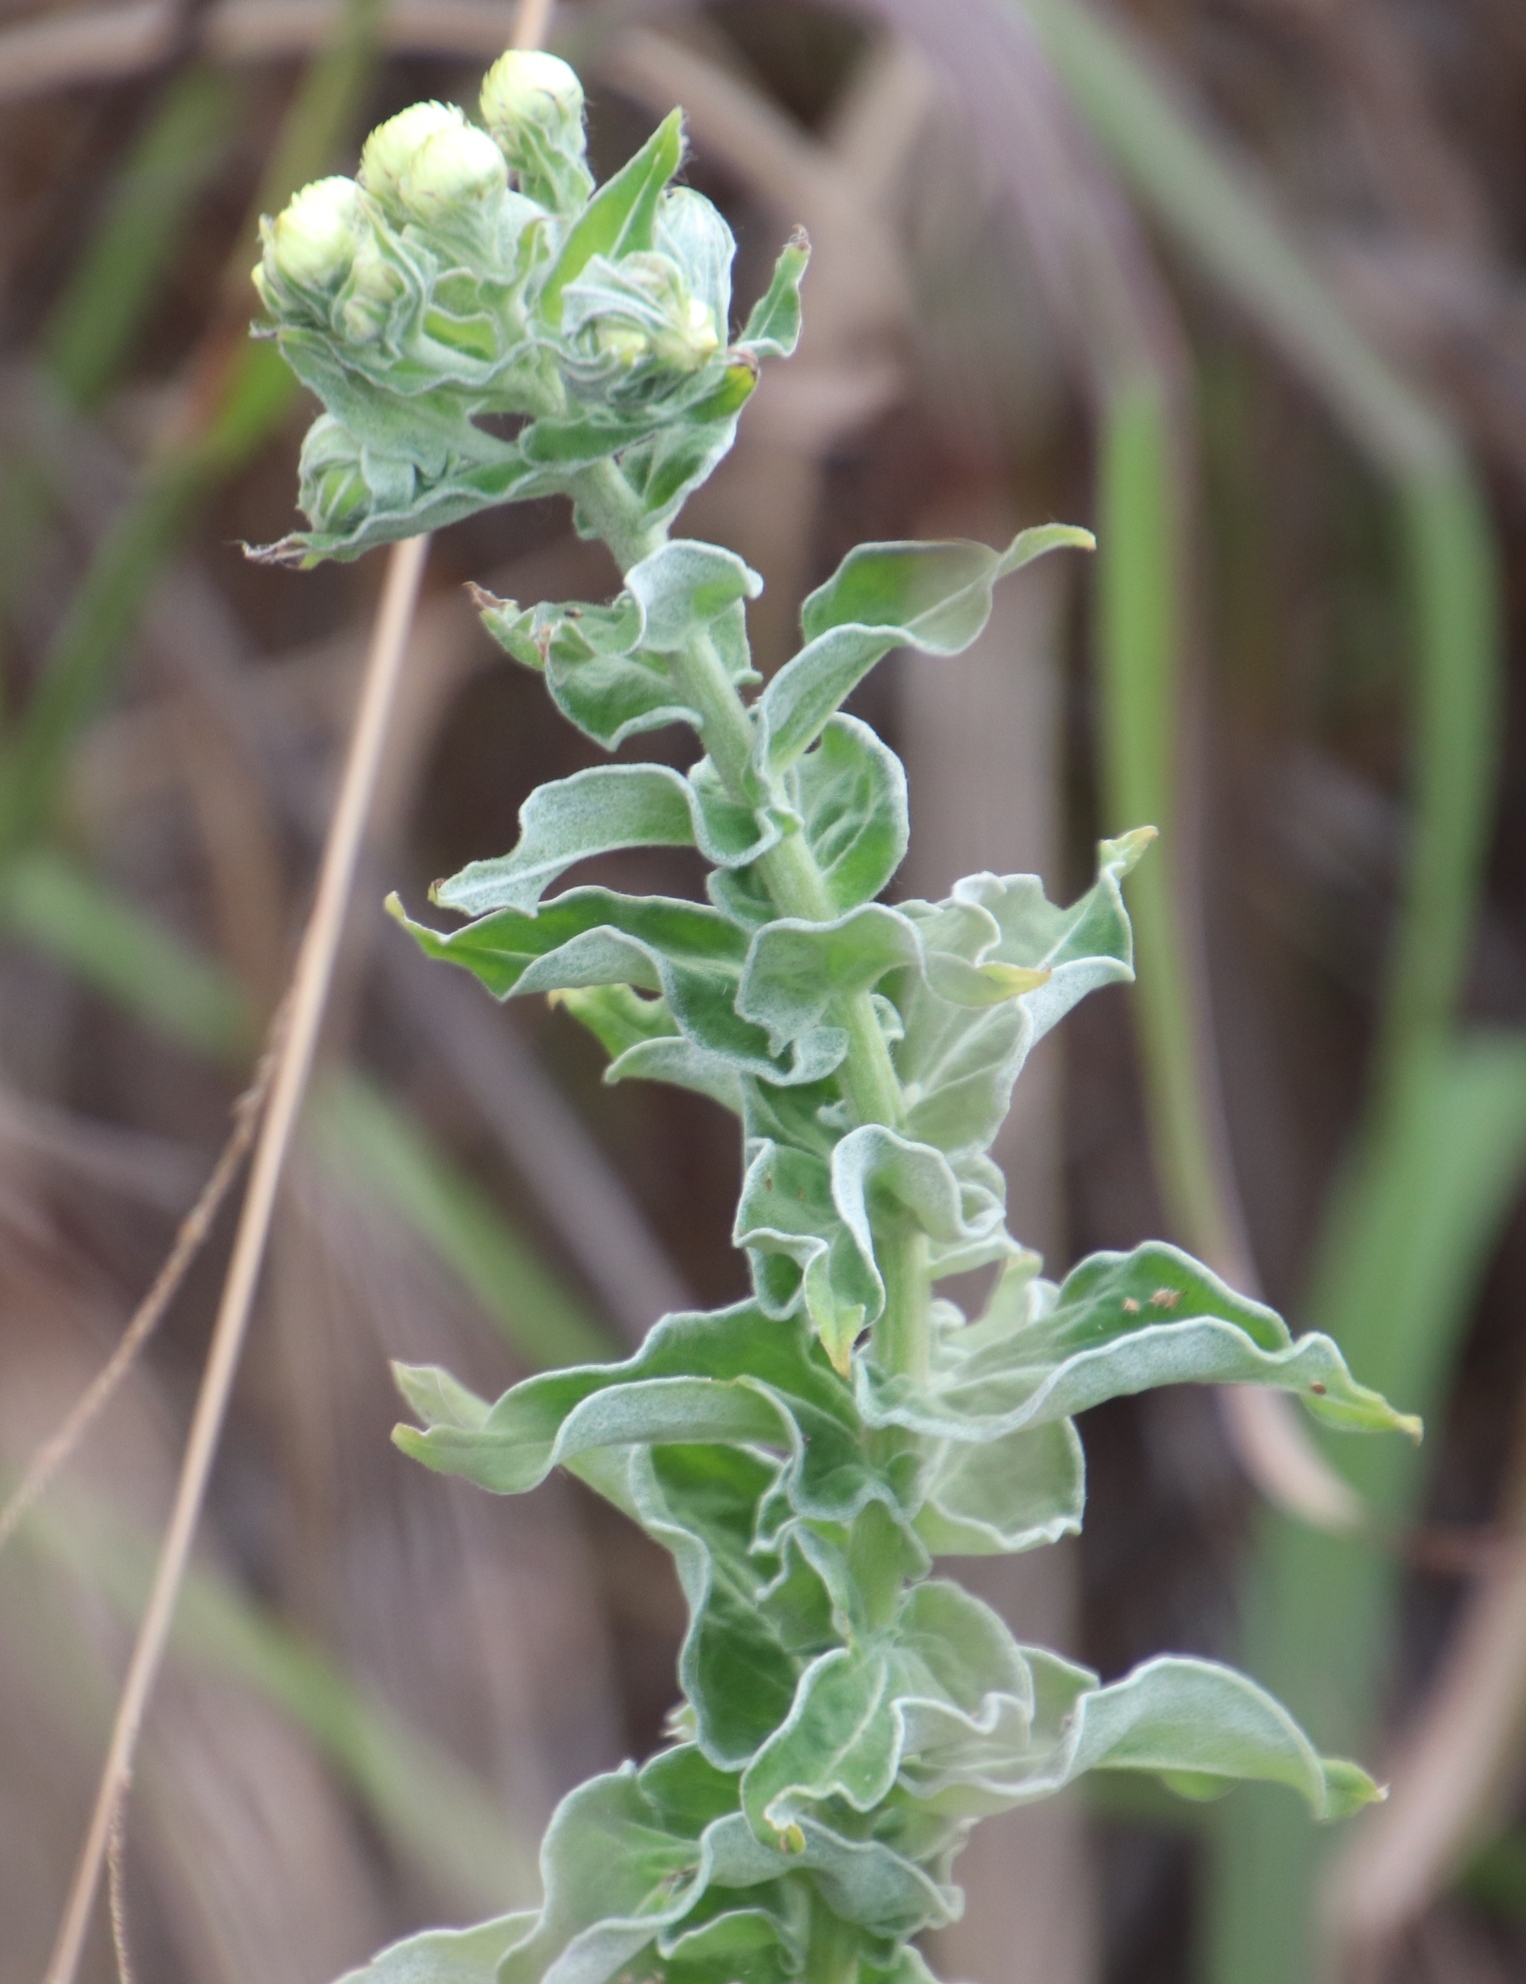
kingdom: Plantae
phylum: Tracheophyta
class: Magnoliopsida
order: Asterales
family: Asteraceae
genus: Helichrysum
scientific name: Helichrysum foetidum
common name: Stinking everlasting
